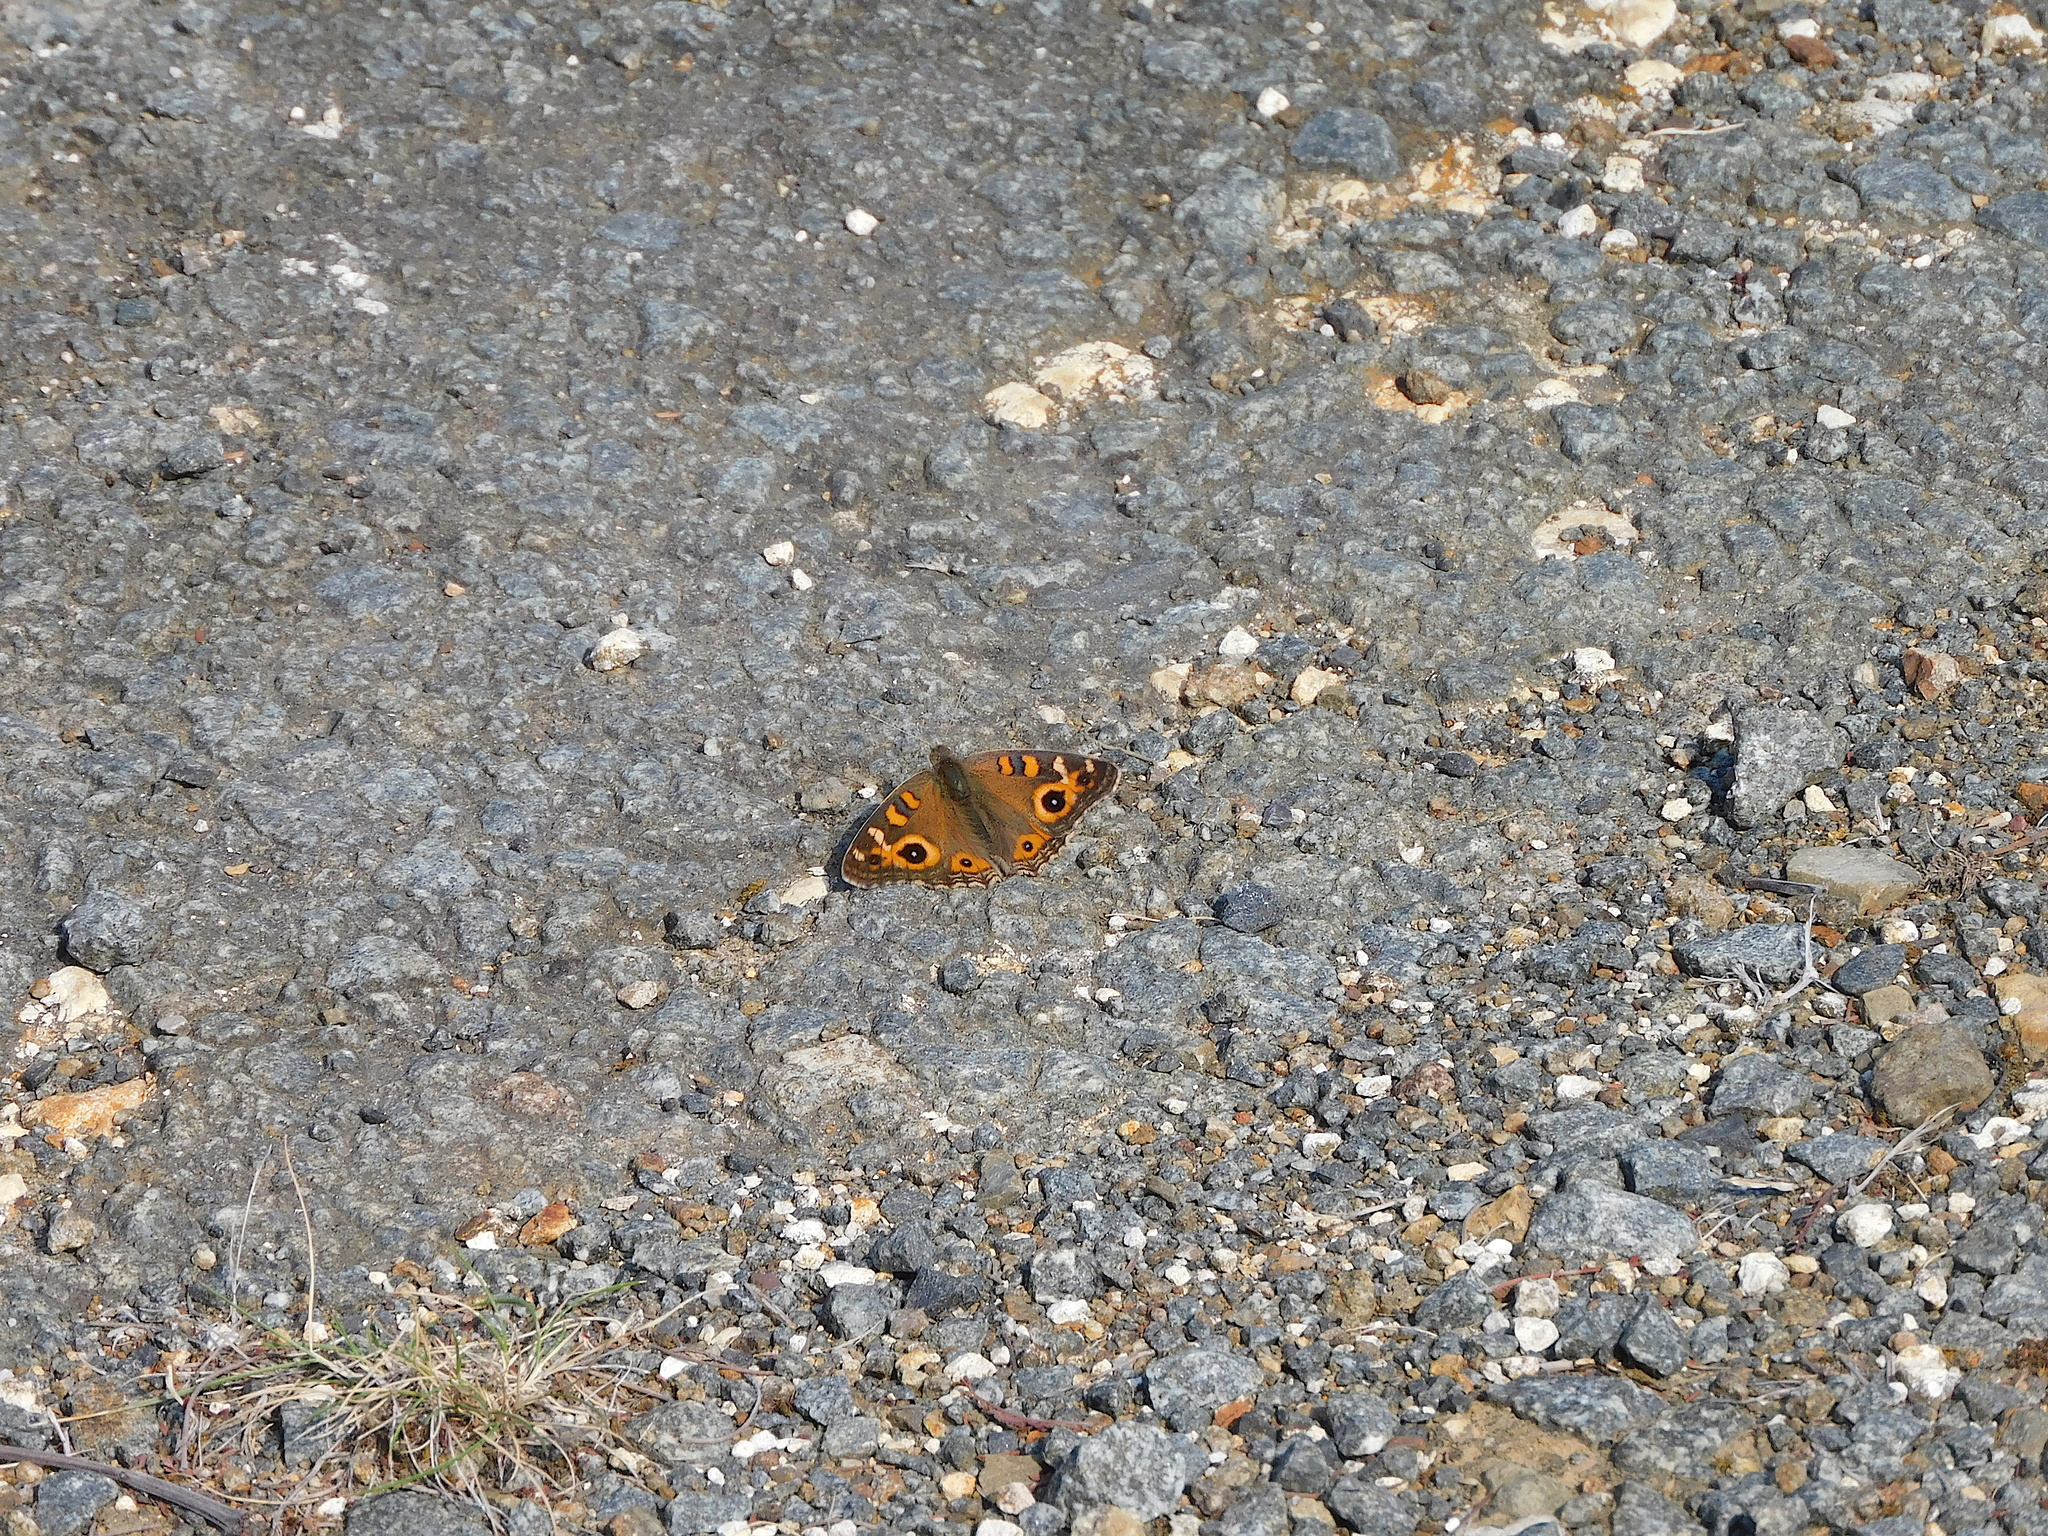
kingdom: Animalia
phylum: Arthropoda
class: Insecta
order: Lepidoptera
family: Nymphalidae
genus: Junonia
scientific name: Junonia villida
